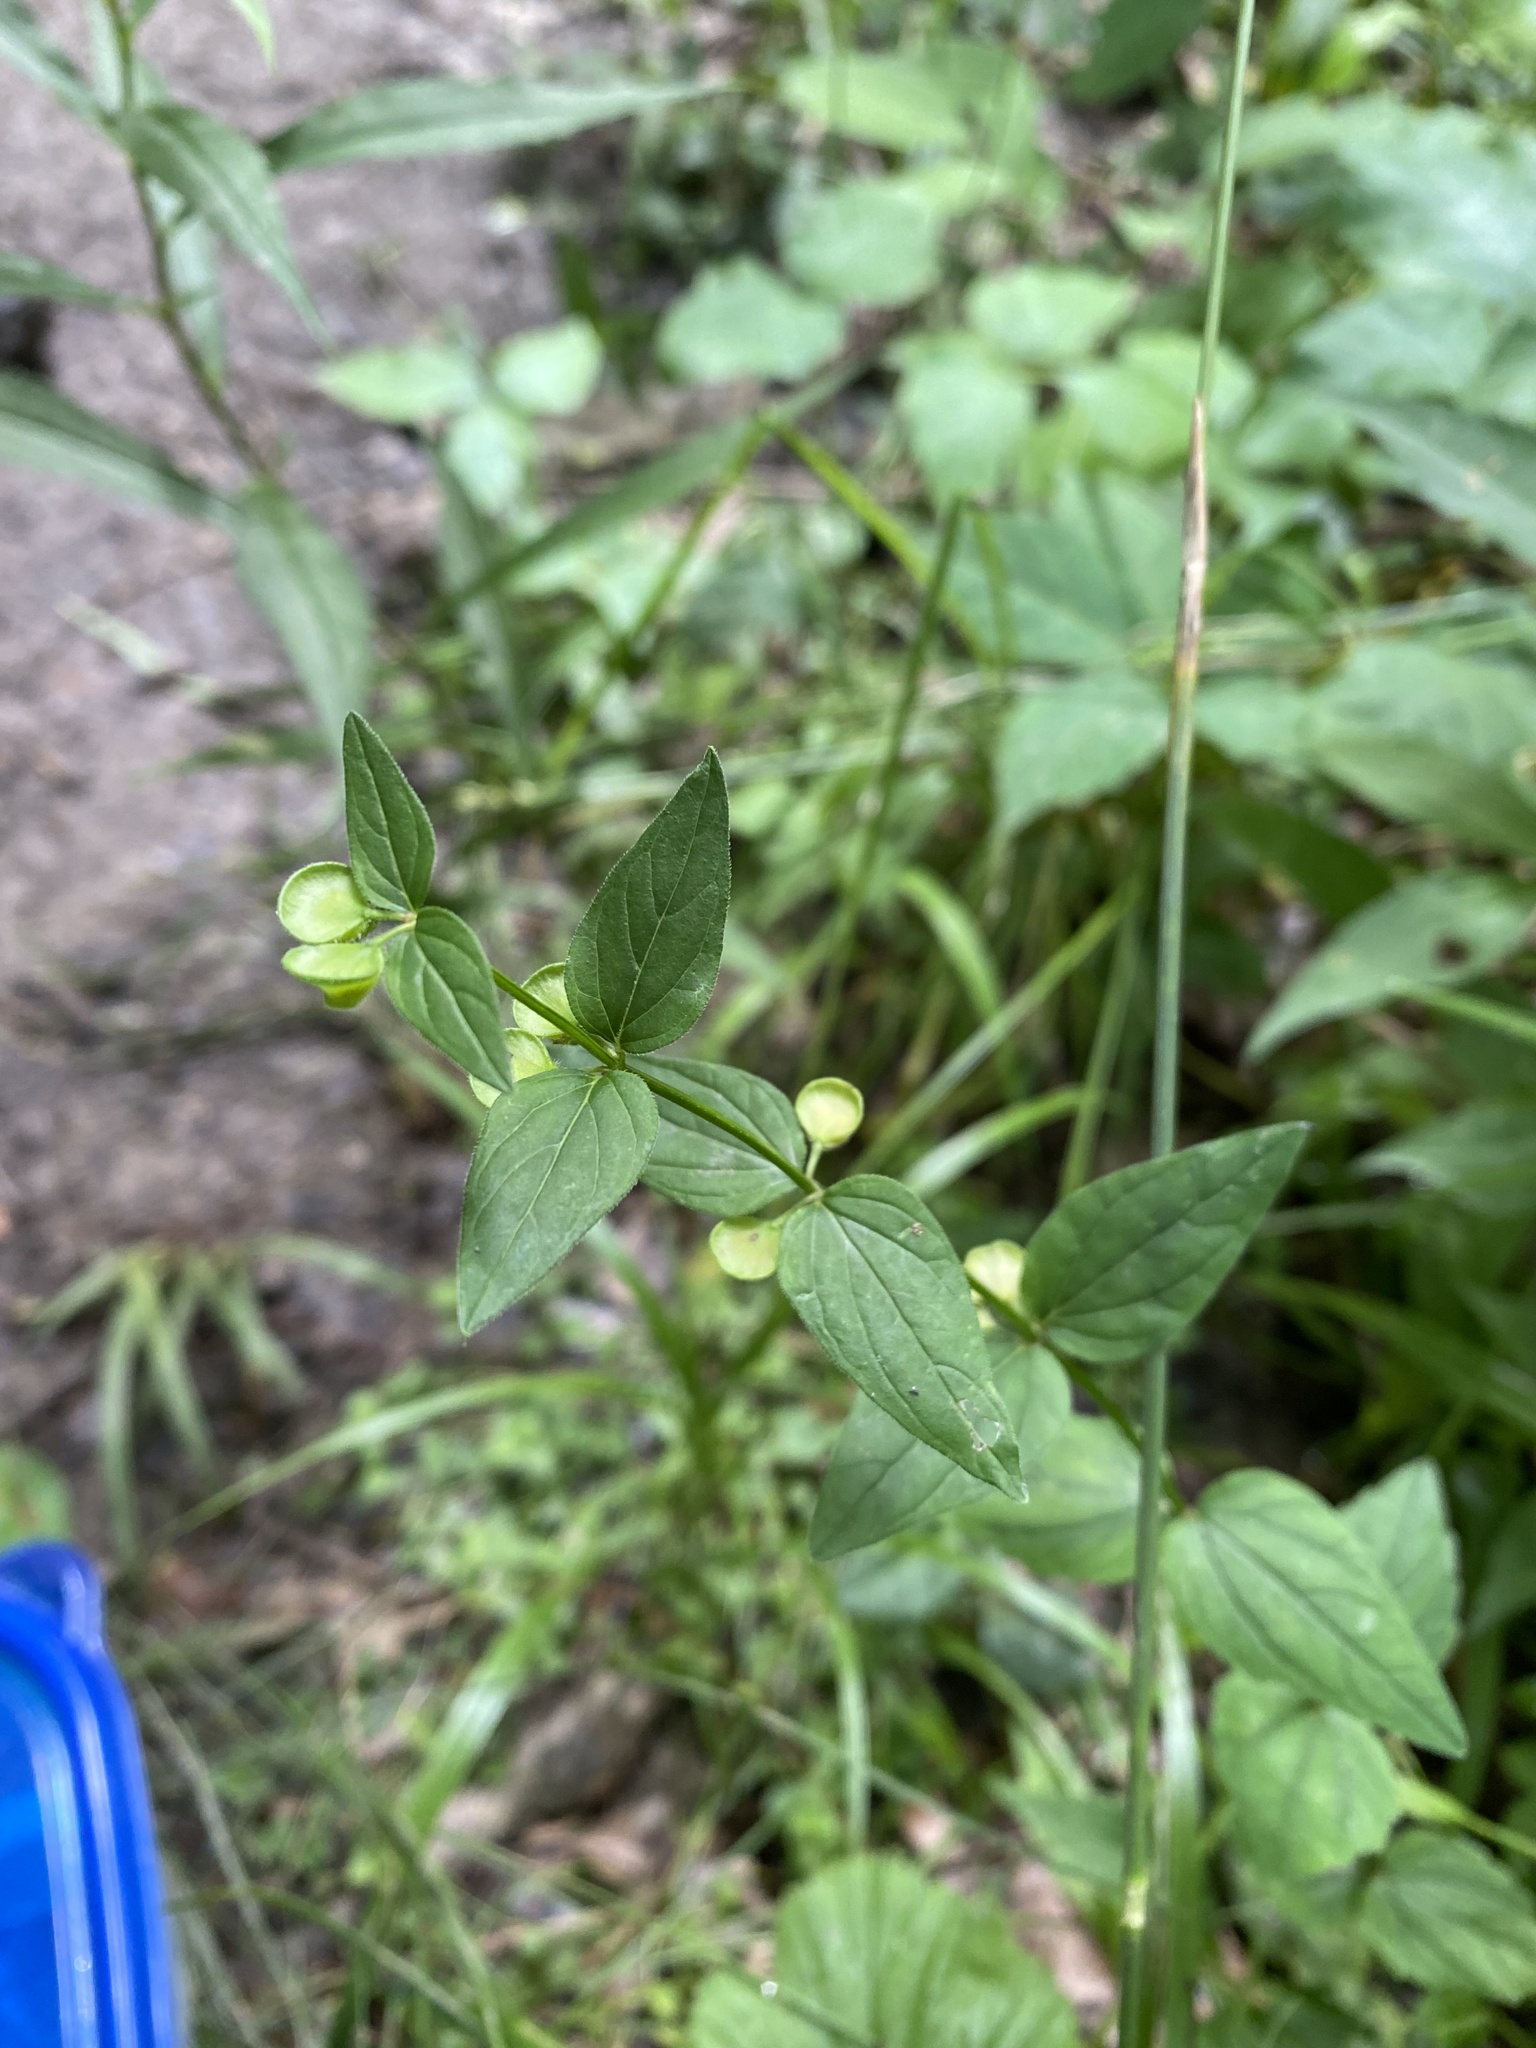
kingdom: Plantae
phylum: Tracheophyta
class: Magnoliopsida
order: Lamiales
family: Lamiaceae
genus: Scutellaria
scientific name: Scutellaria nervosa
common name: Bottomland skullcap
